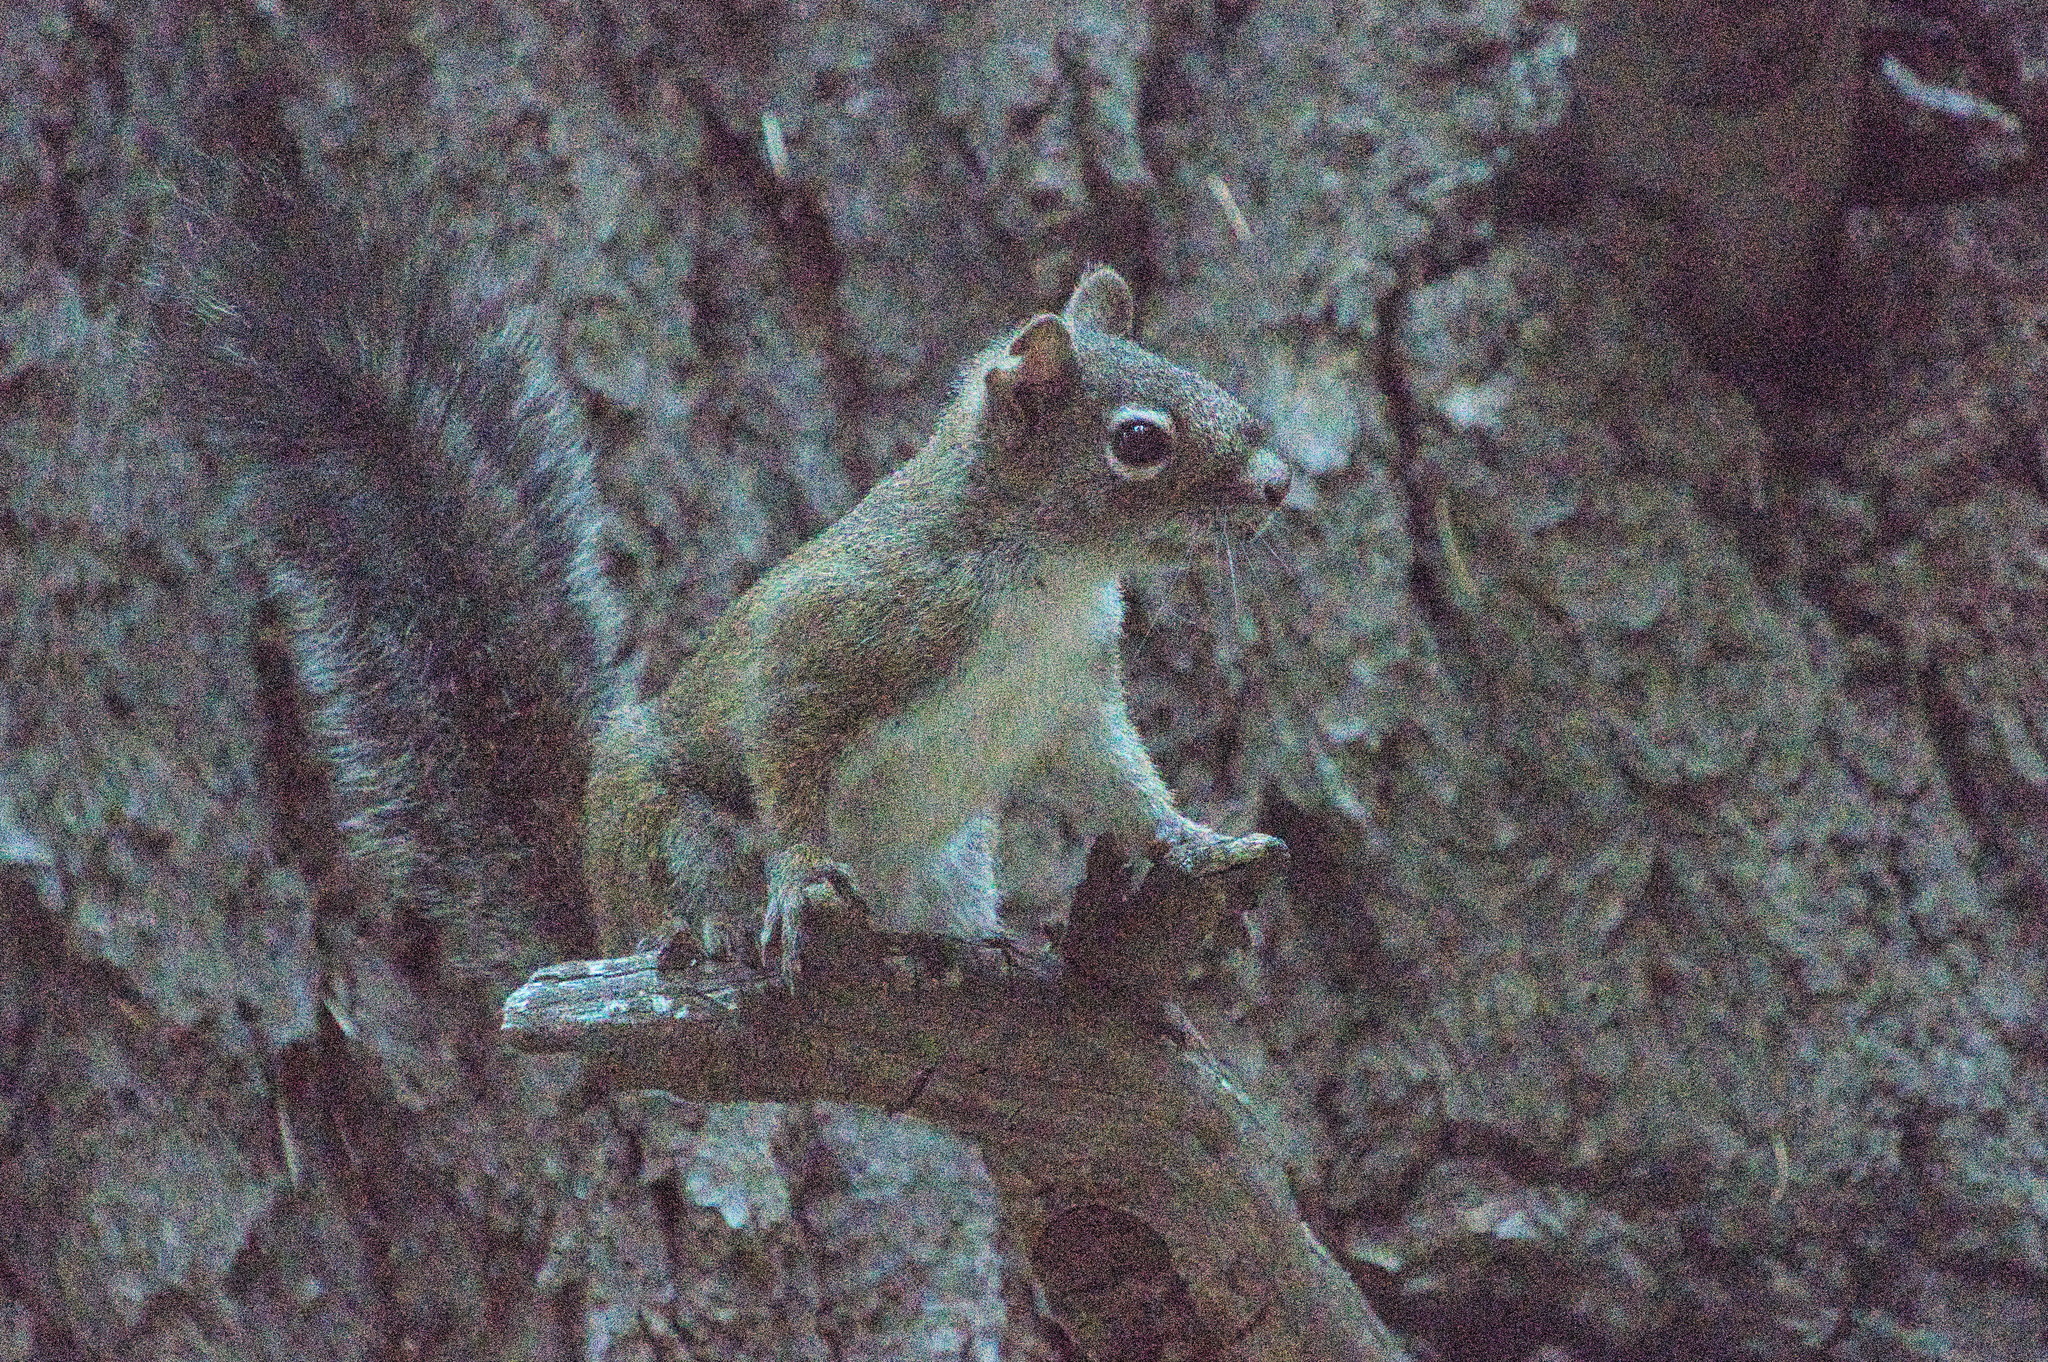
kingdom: Animalia
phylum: Chordata
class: Mammalia
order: Rodentia
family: Sciuridae
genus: Tamiasciurus
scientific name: Tamiasciurus hudsonicus
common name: Red squirrel
